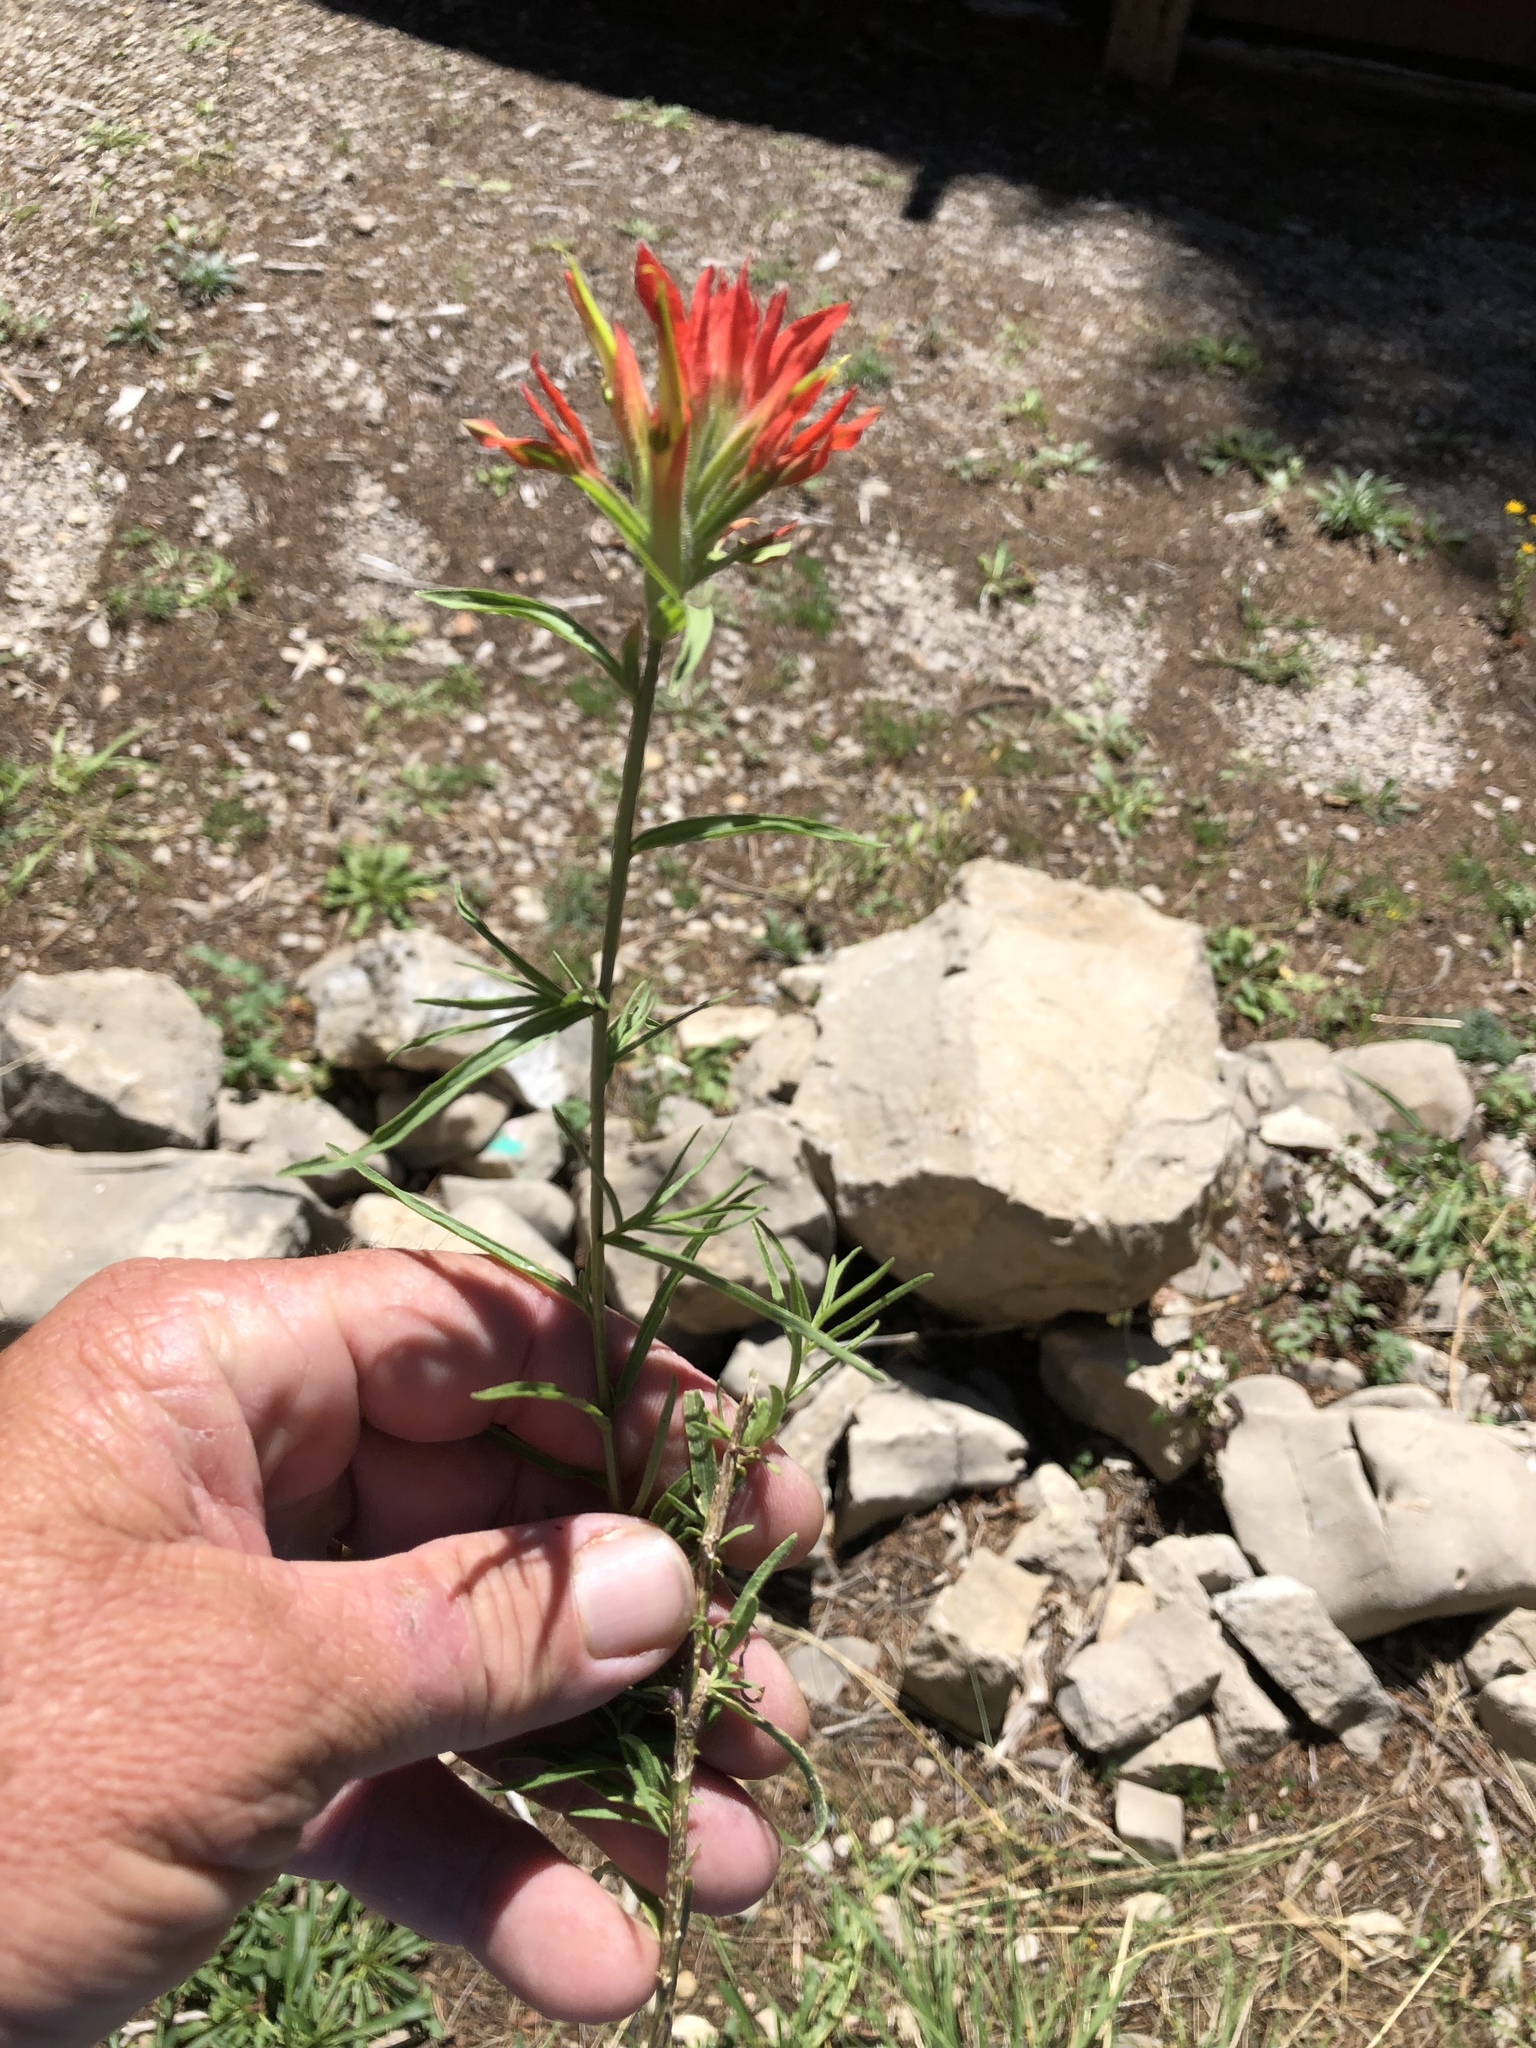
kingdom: Plantae
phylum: Tracheophyta
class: Magnoliopsida
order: Lamiales
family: Orobanchaceae
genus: Castilleja
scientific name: Castilleja wootonii
